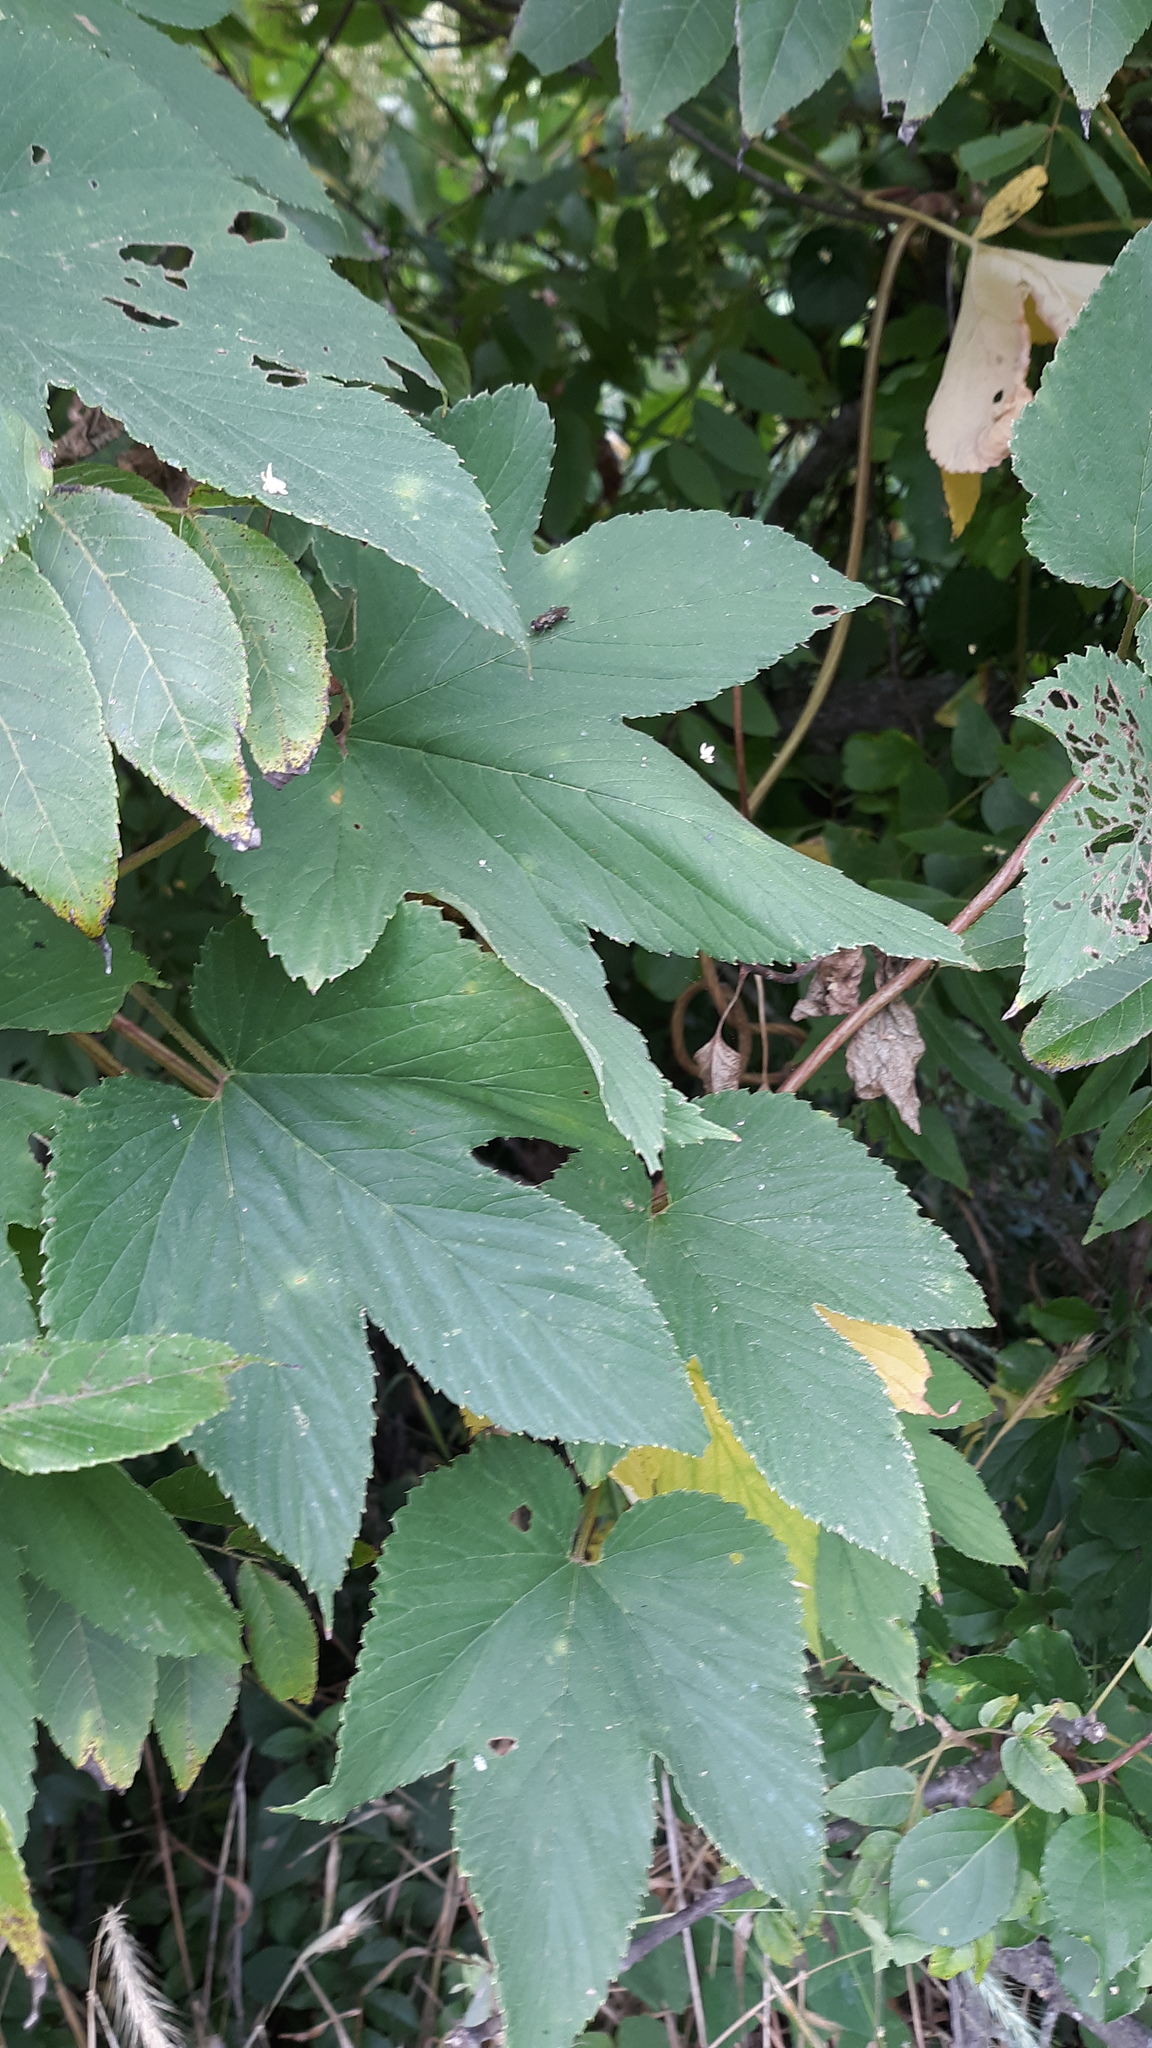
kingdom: Plantae
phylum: Tracheophyta
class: Magnoliopsida
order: Rosales
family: Cannabaceae
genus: Humulus
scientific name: Humulus lupulus
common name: Hop
